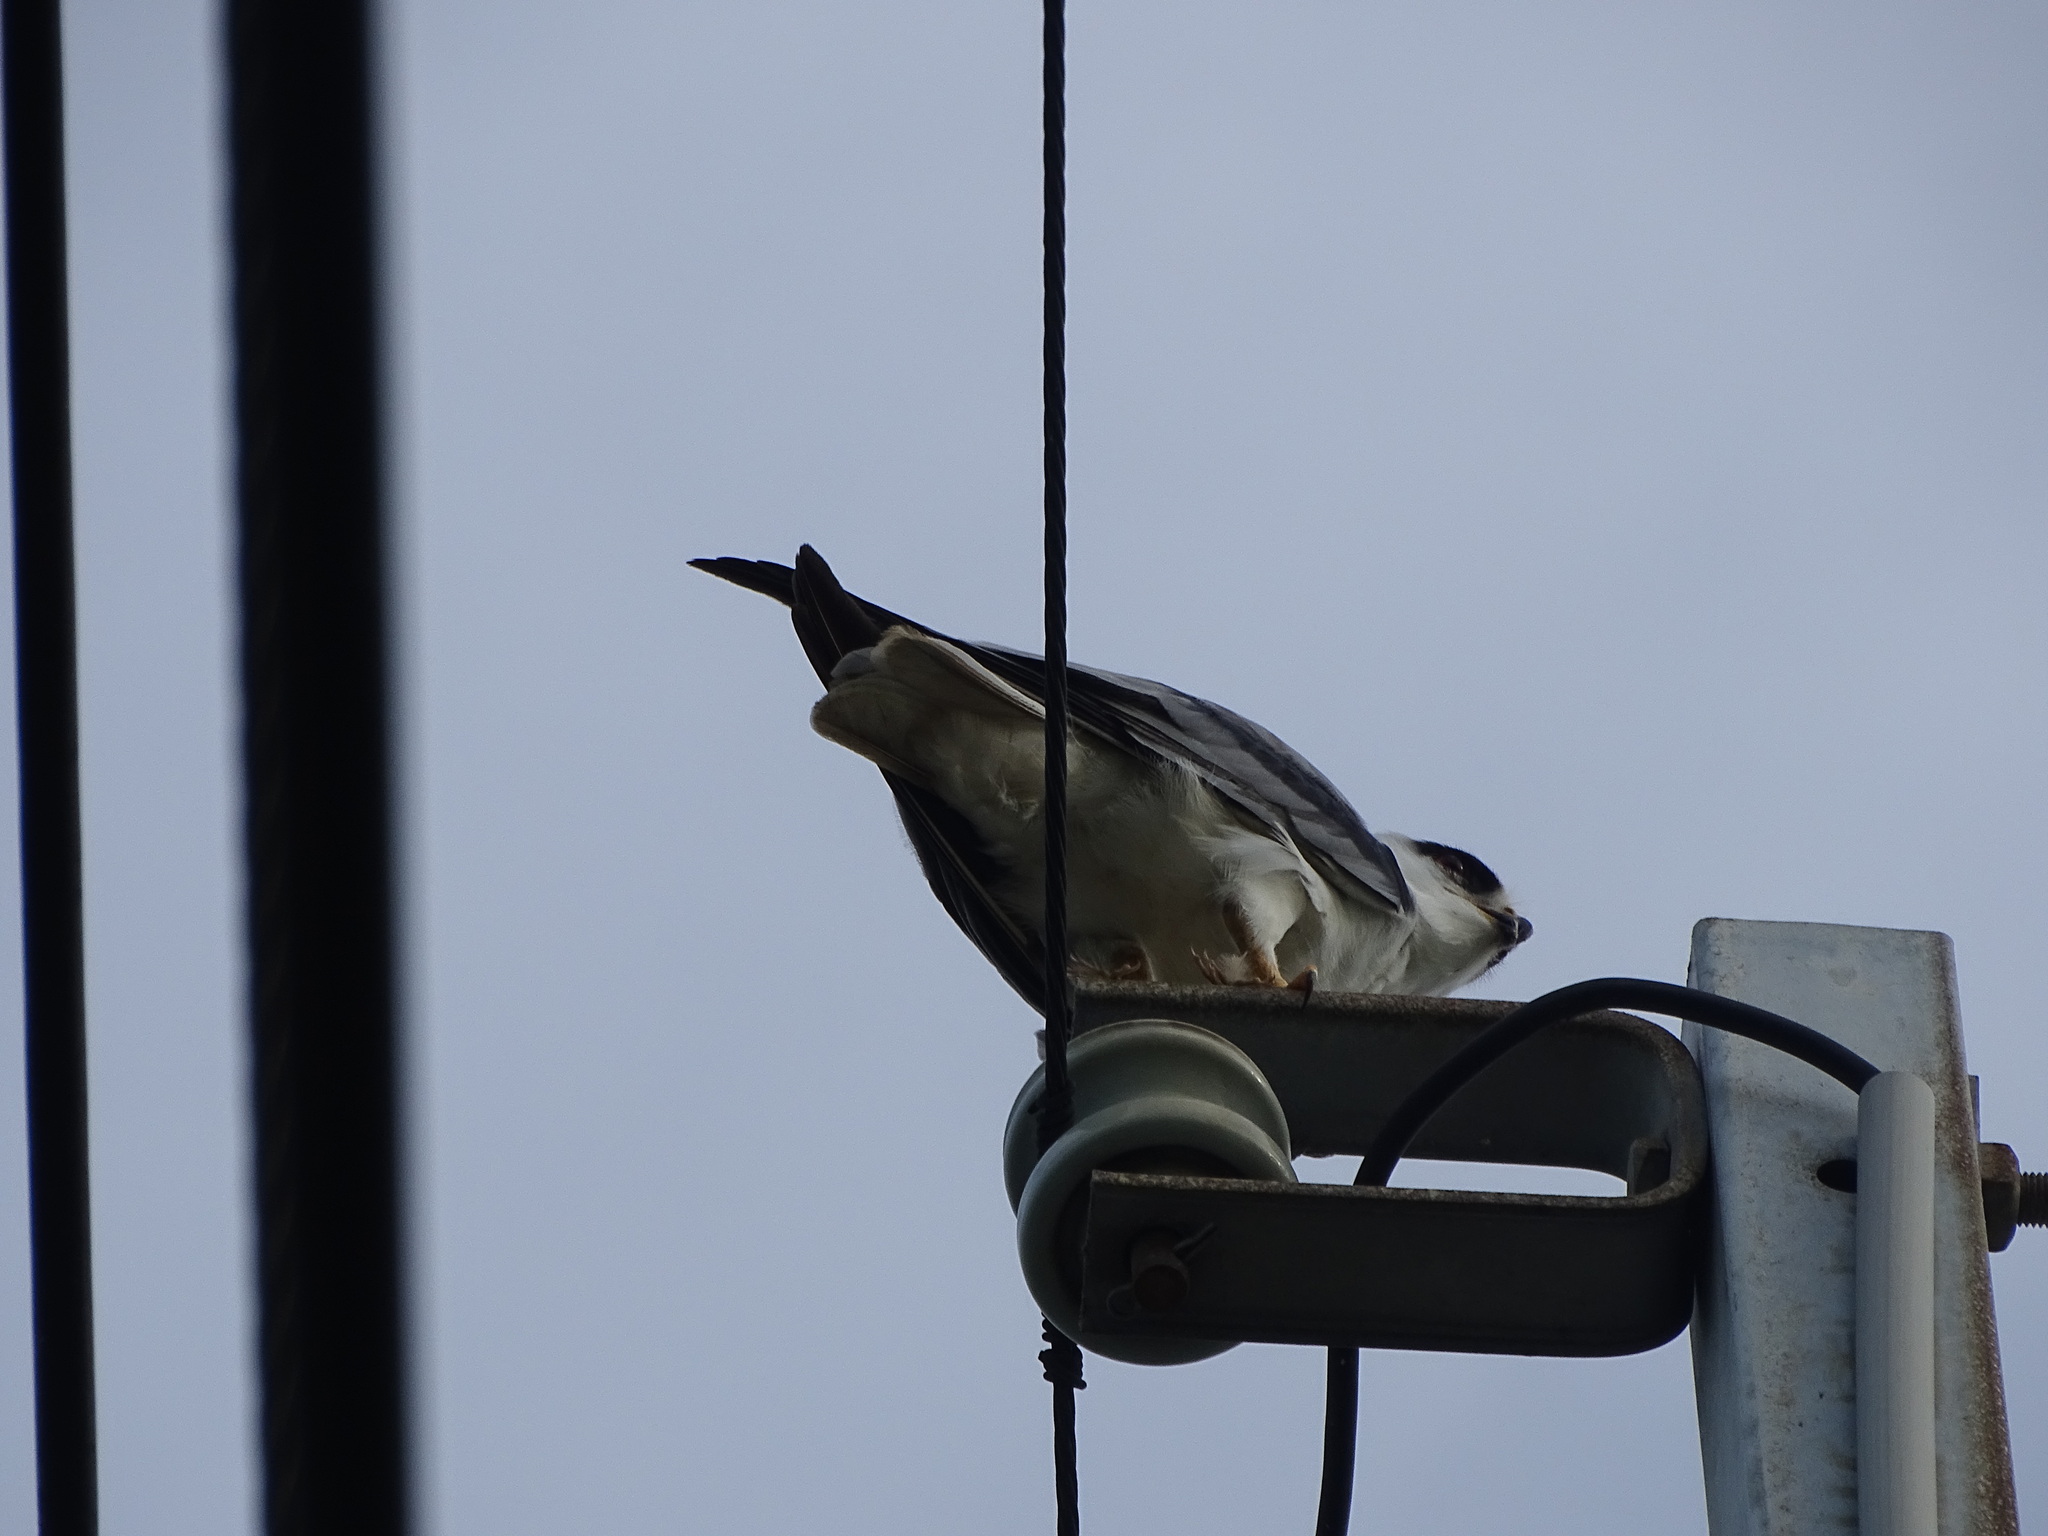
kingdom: Animalia
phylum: Chordata
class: Aves
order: Accipitriformes
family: Accipitridae
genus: Elanus
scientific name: Elanus caeruleus
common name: Black-winged kite
